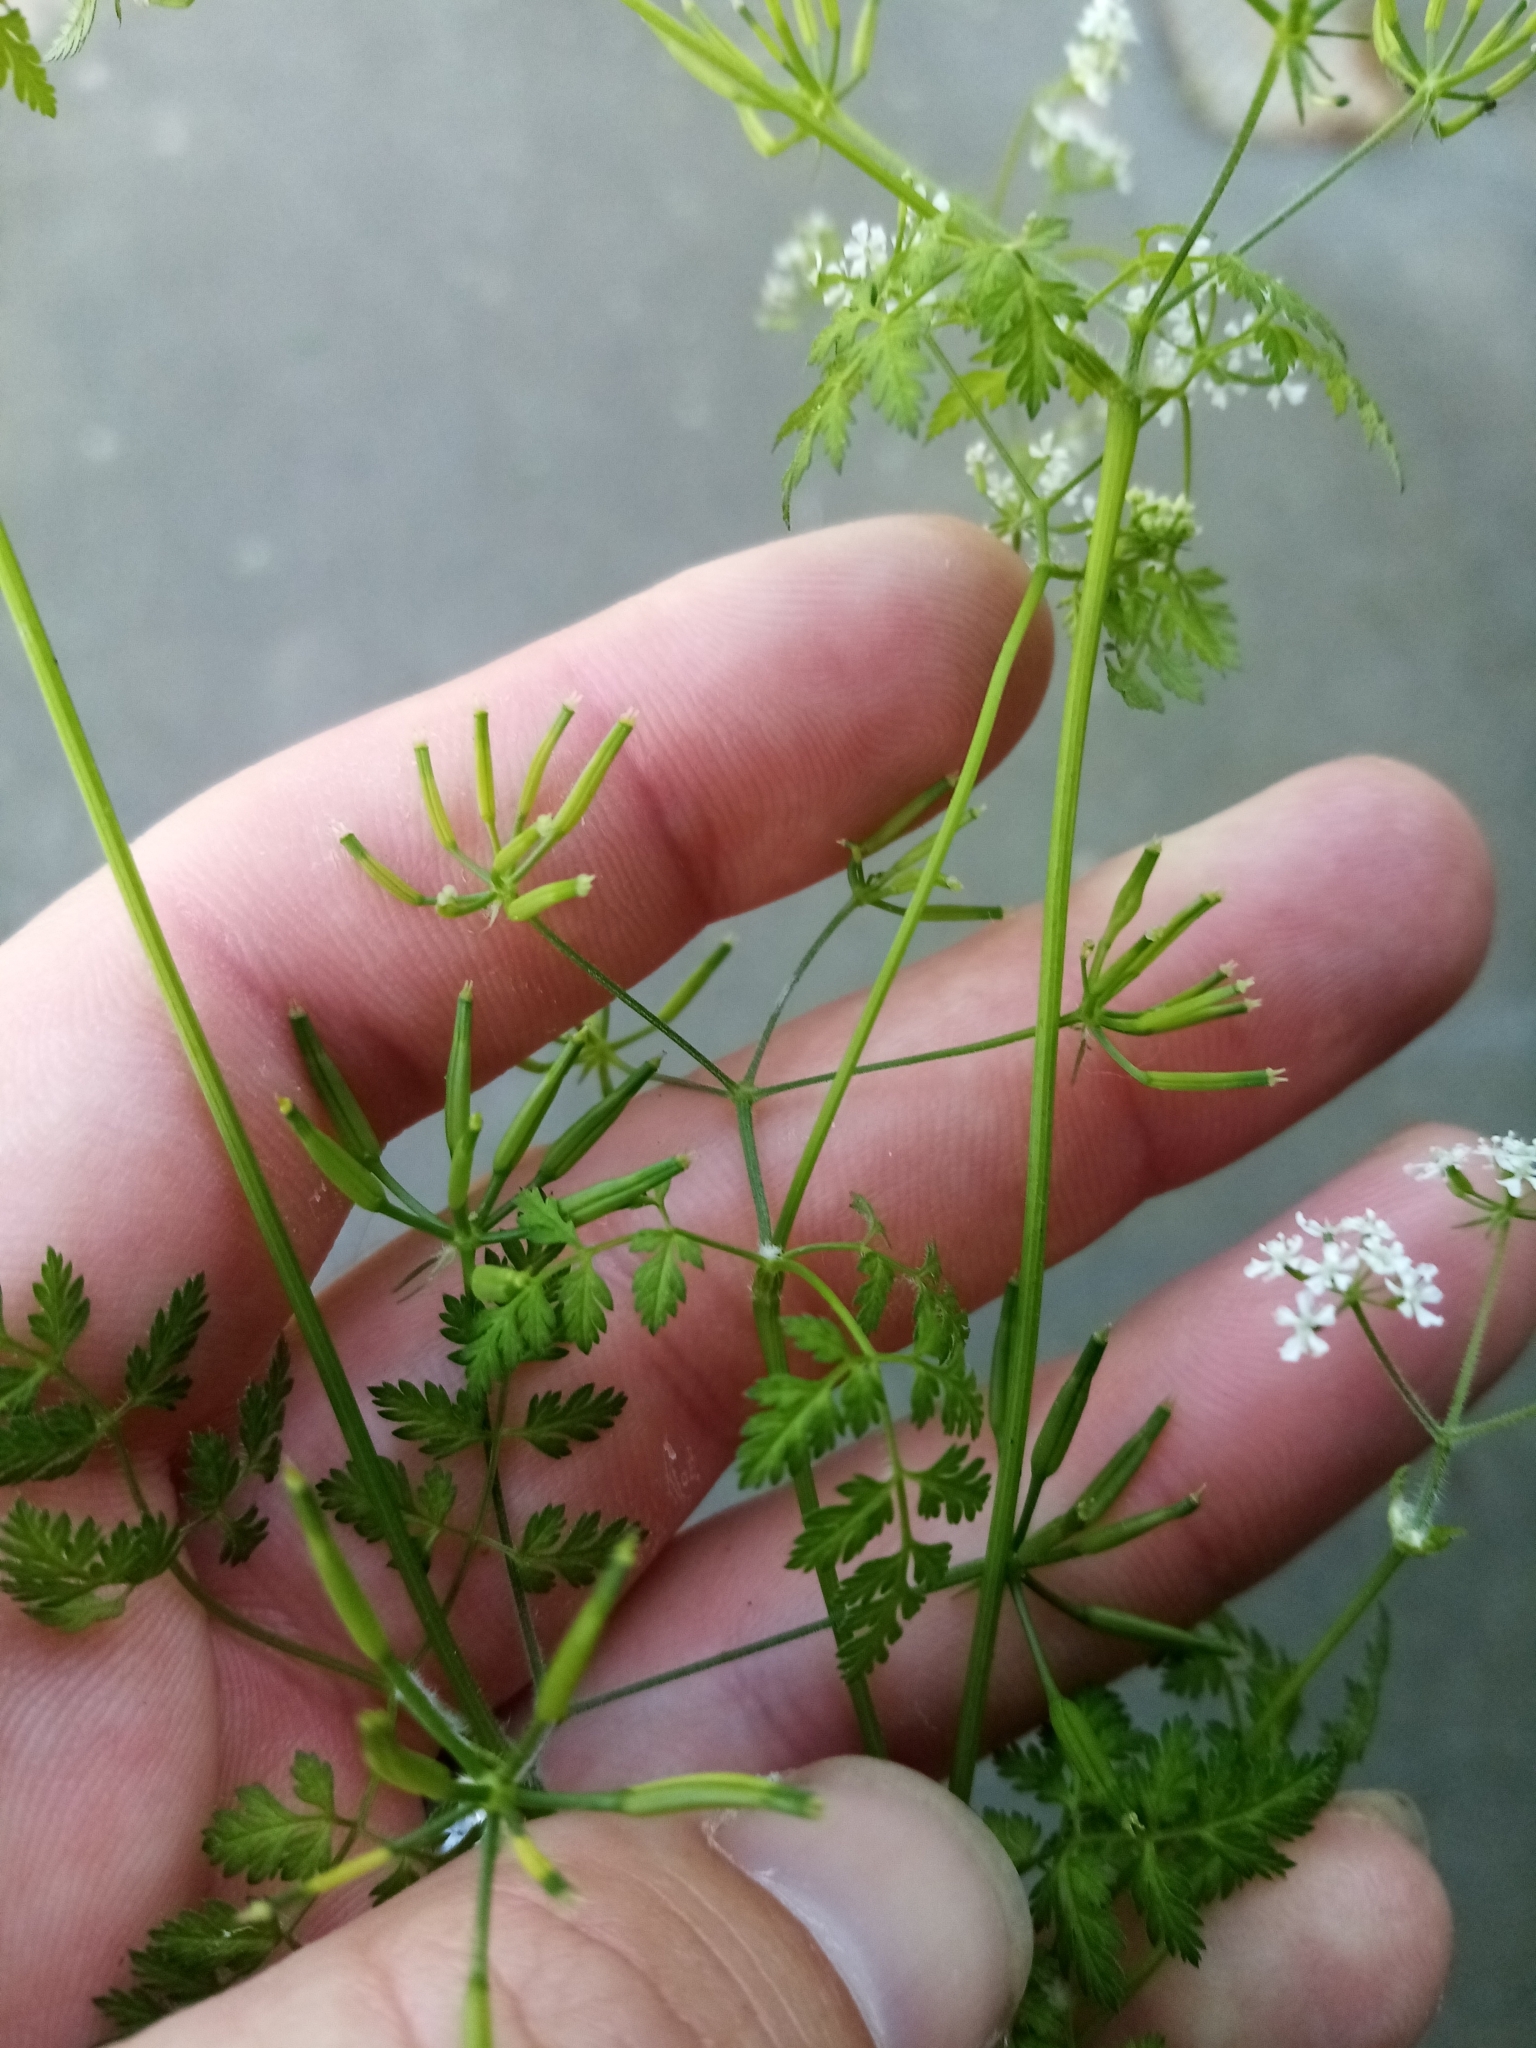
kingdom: Plantae
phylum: Tracheophyta
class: Magnoliopsida
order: Apiales
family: Apiaceae
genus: Anthriscus
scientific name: Anthriscus cerefolium
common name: Garden chervil
